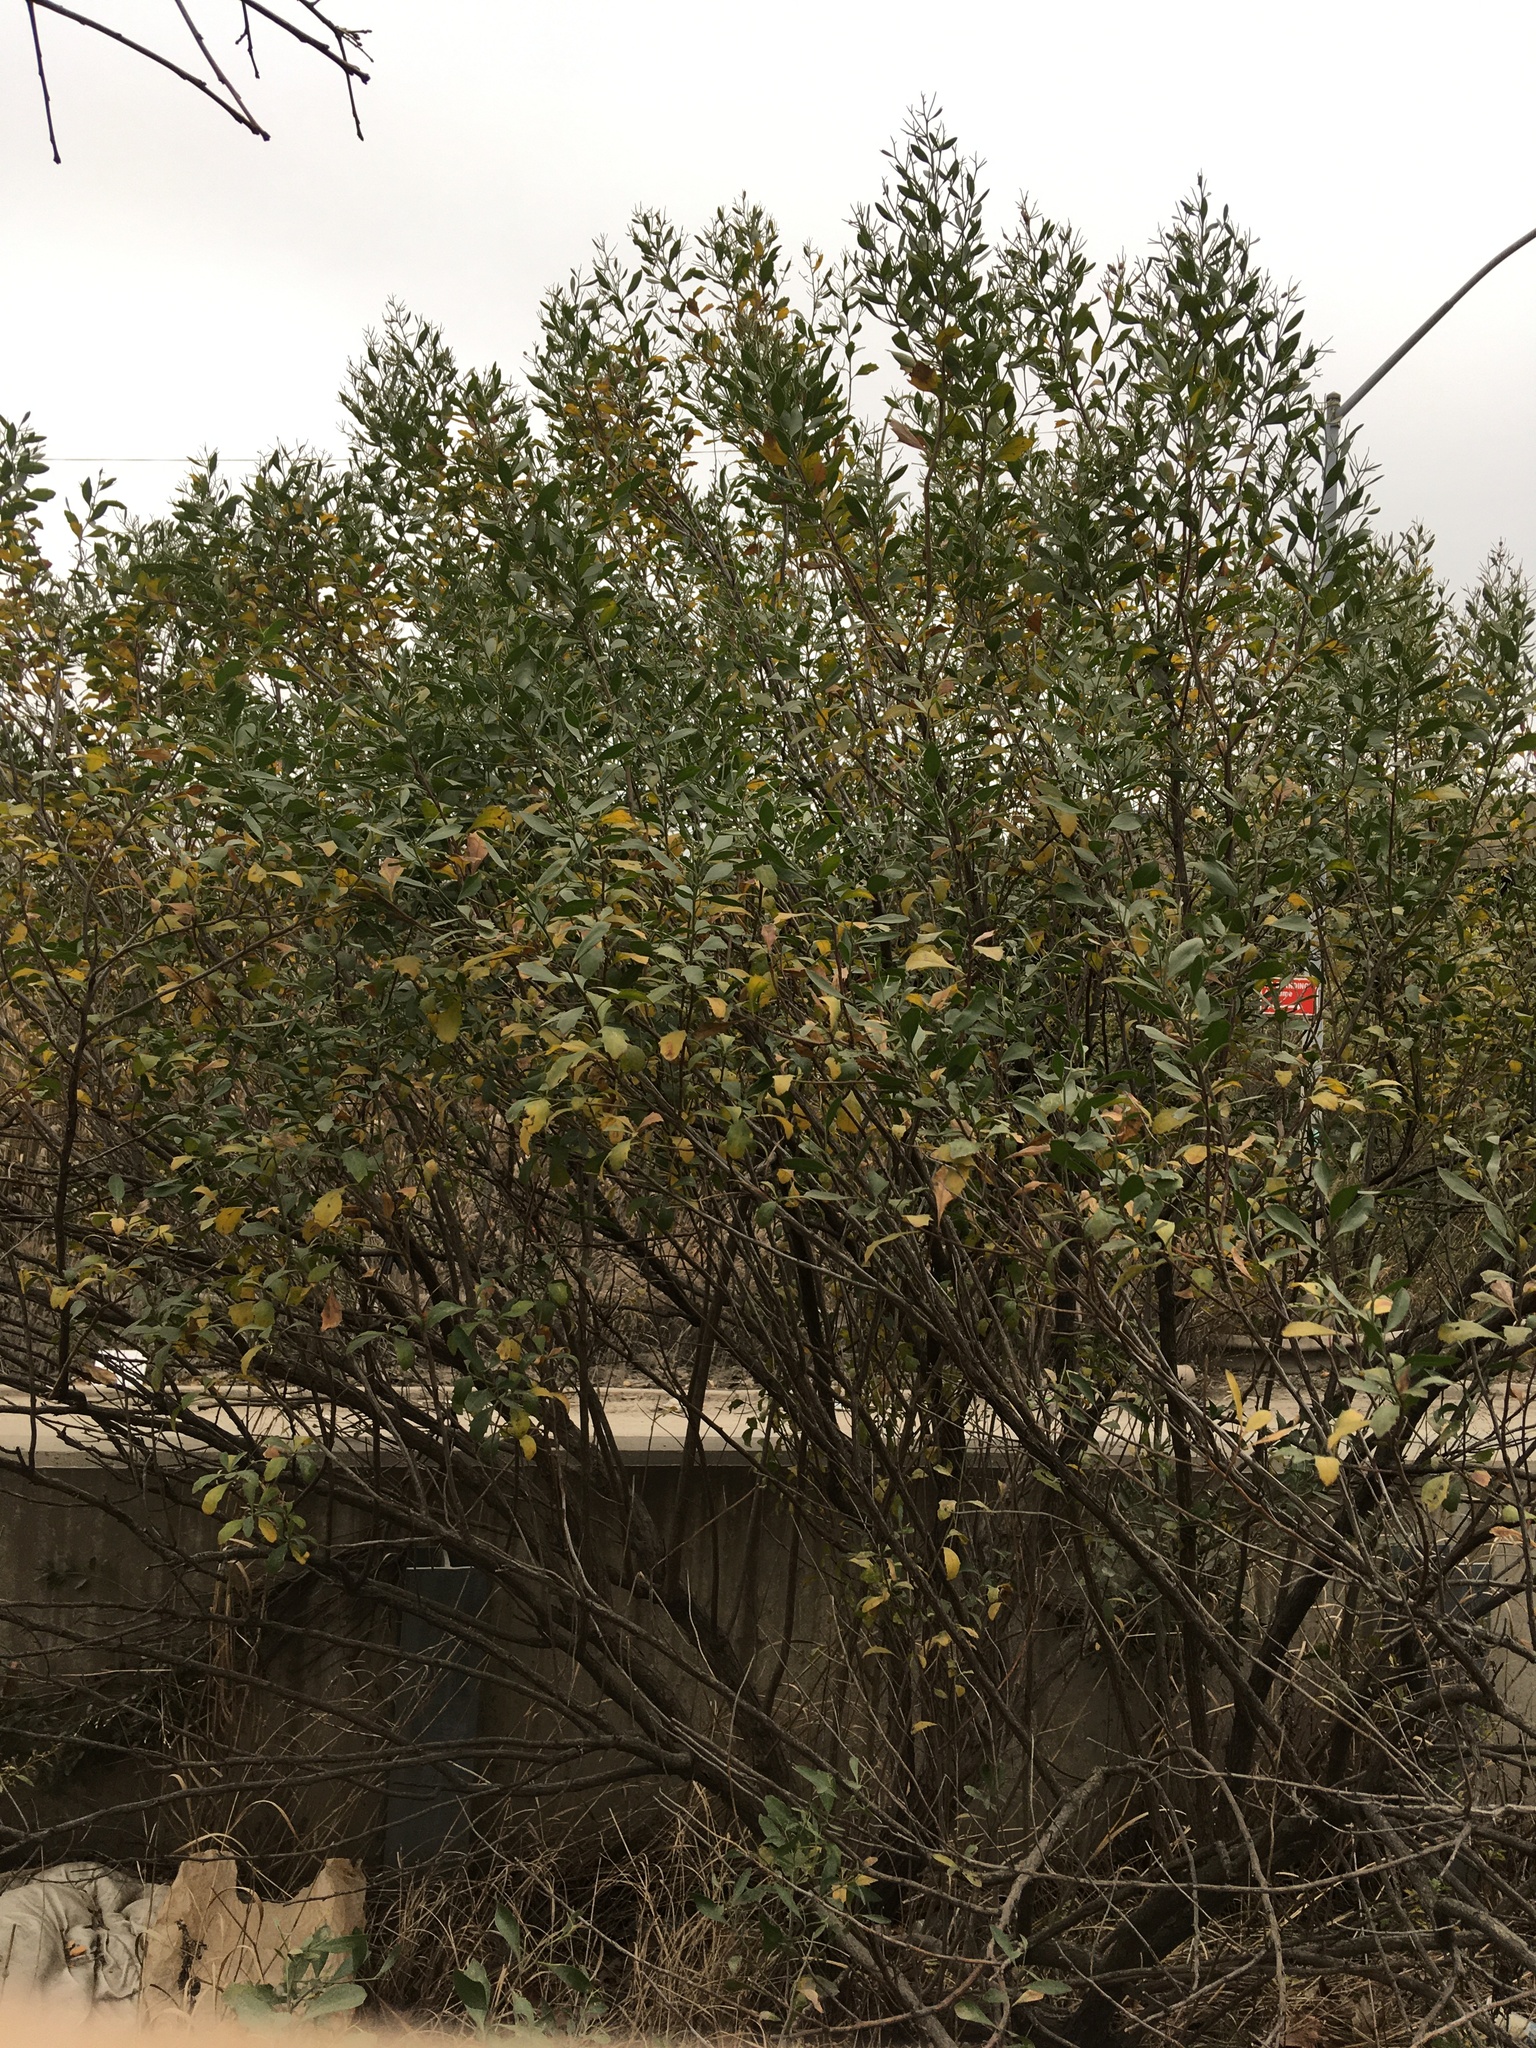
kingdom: Plantae
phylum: Tracheophyta
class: Magnoliopsida
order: Asterales
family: Asteraceae
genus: Baccharis
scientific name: Baccharis halimifolia
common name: Eastern baccharis
